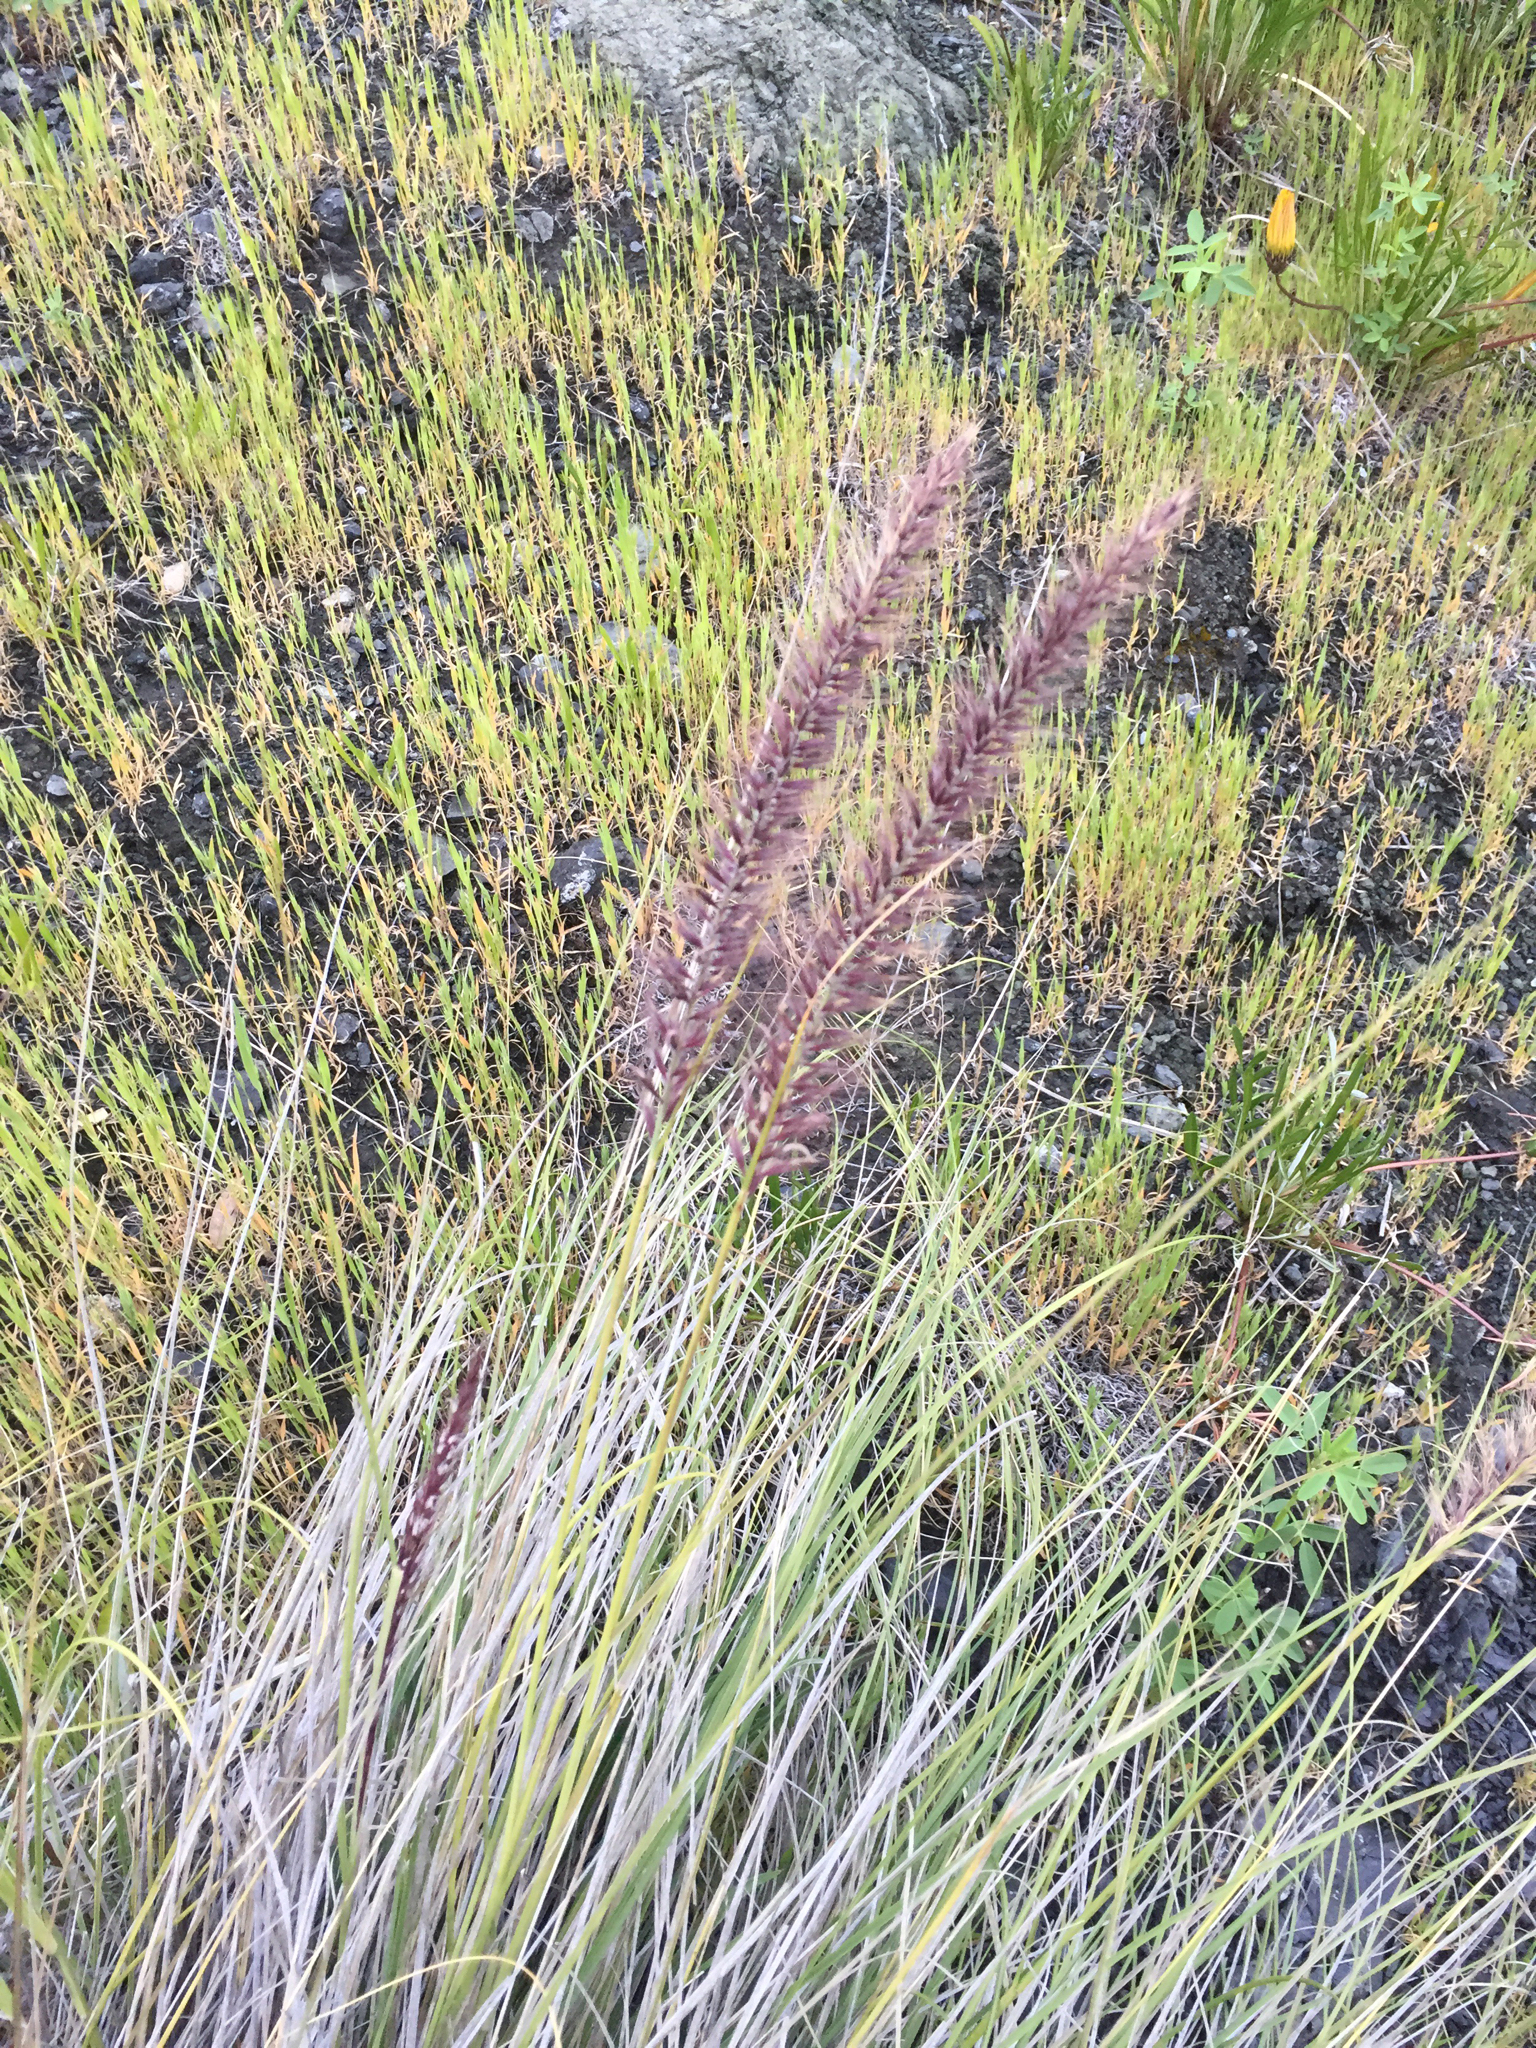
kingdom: Plantae
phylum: Tracheophyta
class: Liliopsida
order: Poales
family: Poaceae
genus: Cenchrus
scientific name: Cenchrus setaceus
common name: Crimson fountaingrass
